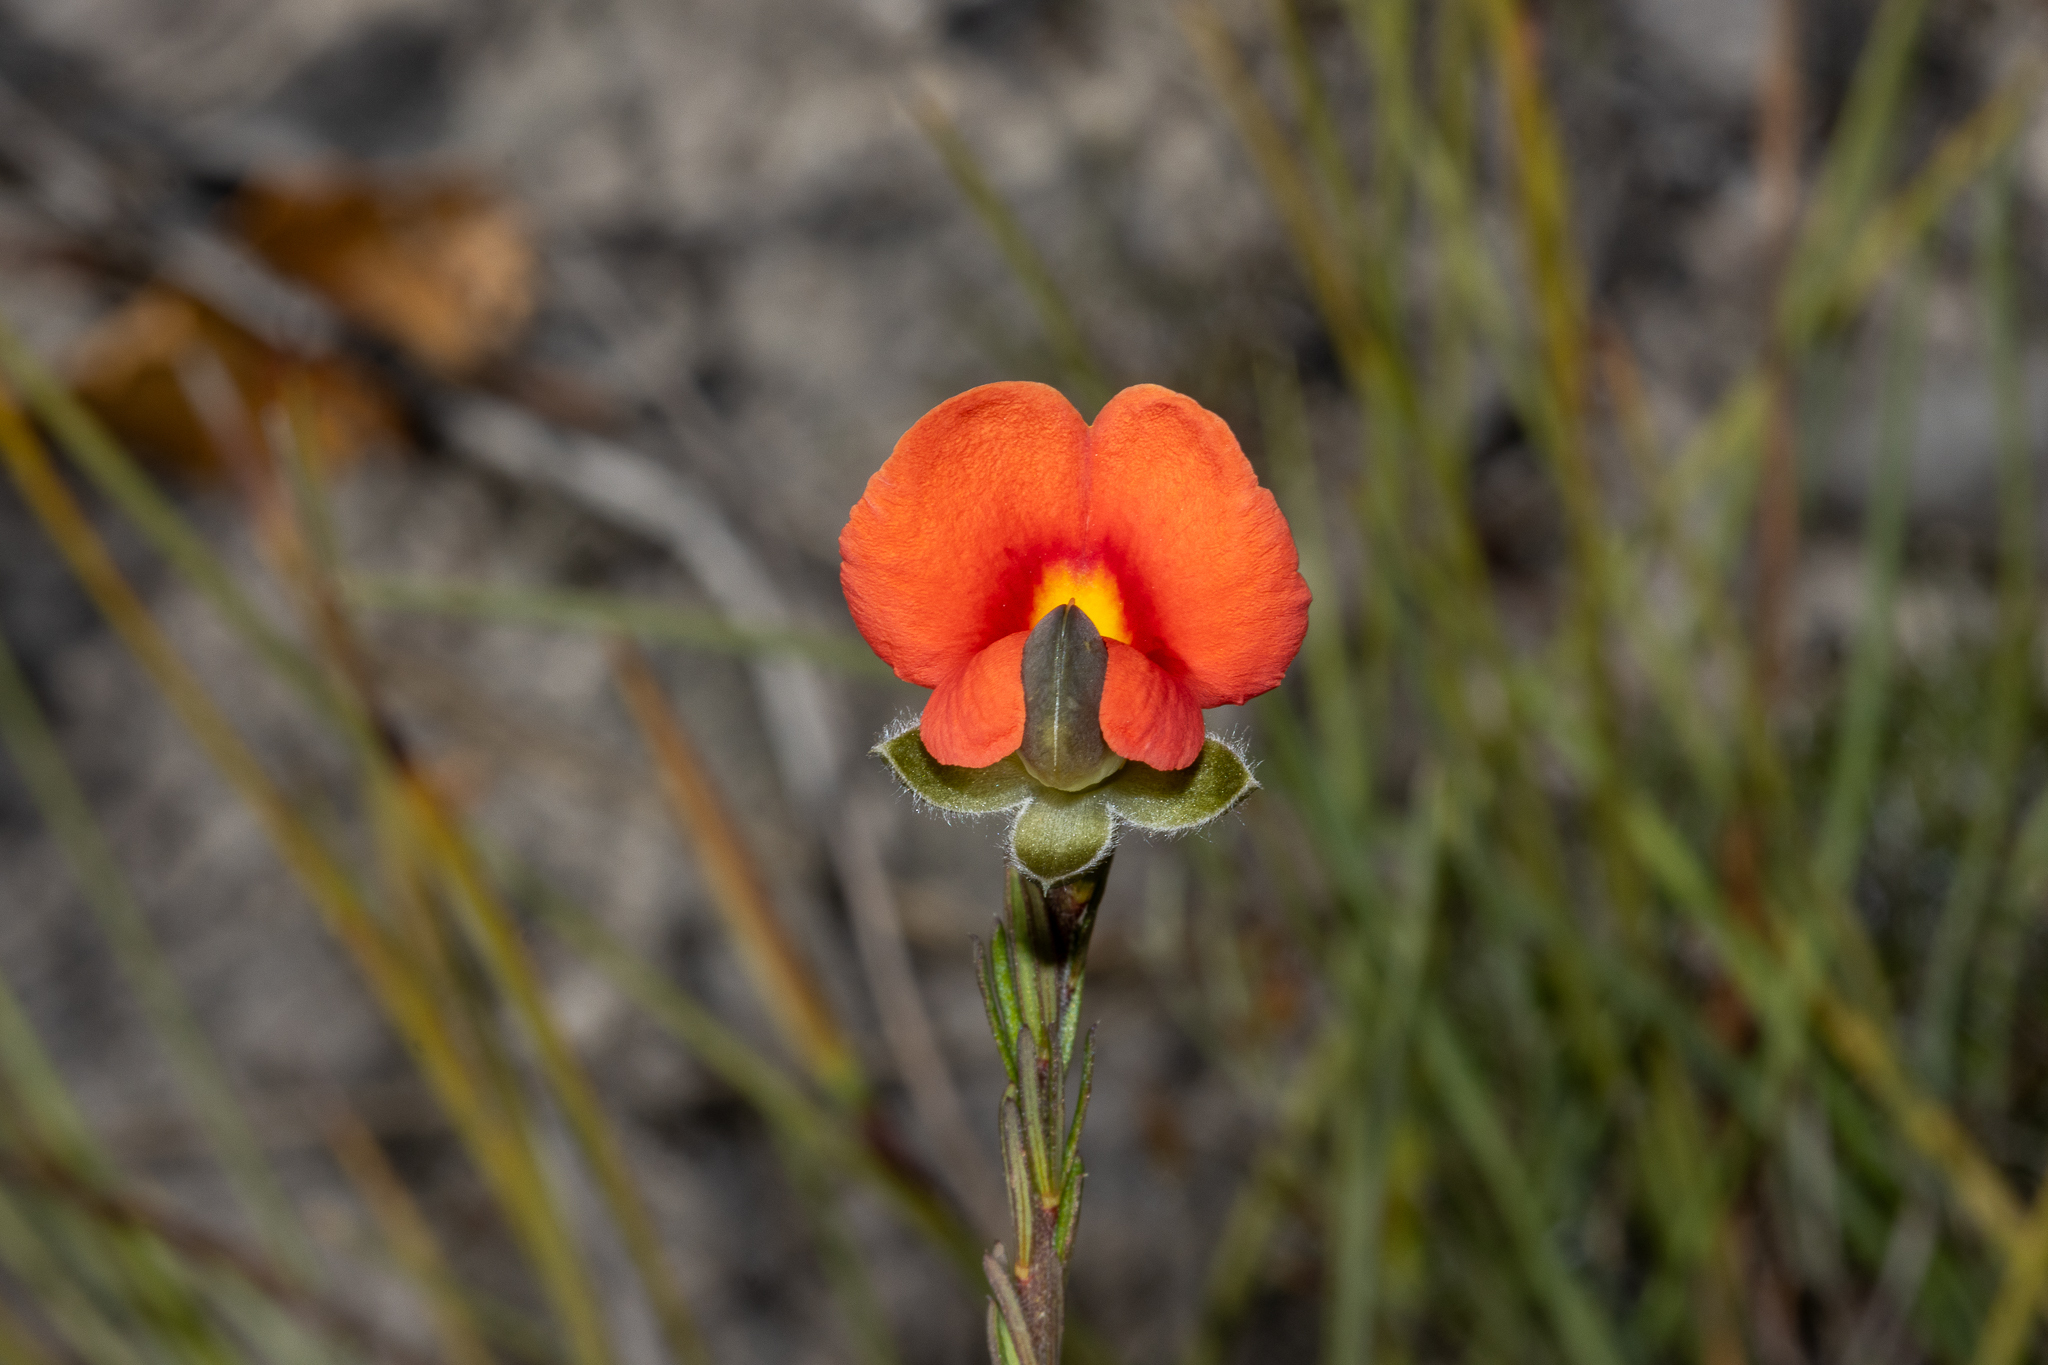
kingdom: Plantae
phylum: Tracheophyta
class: Magnoliopsida
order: Fabales
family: Fabaceae
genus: Gompholobium
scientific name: Gompholobium ecostatum
